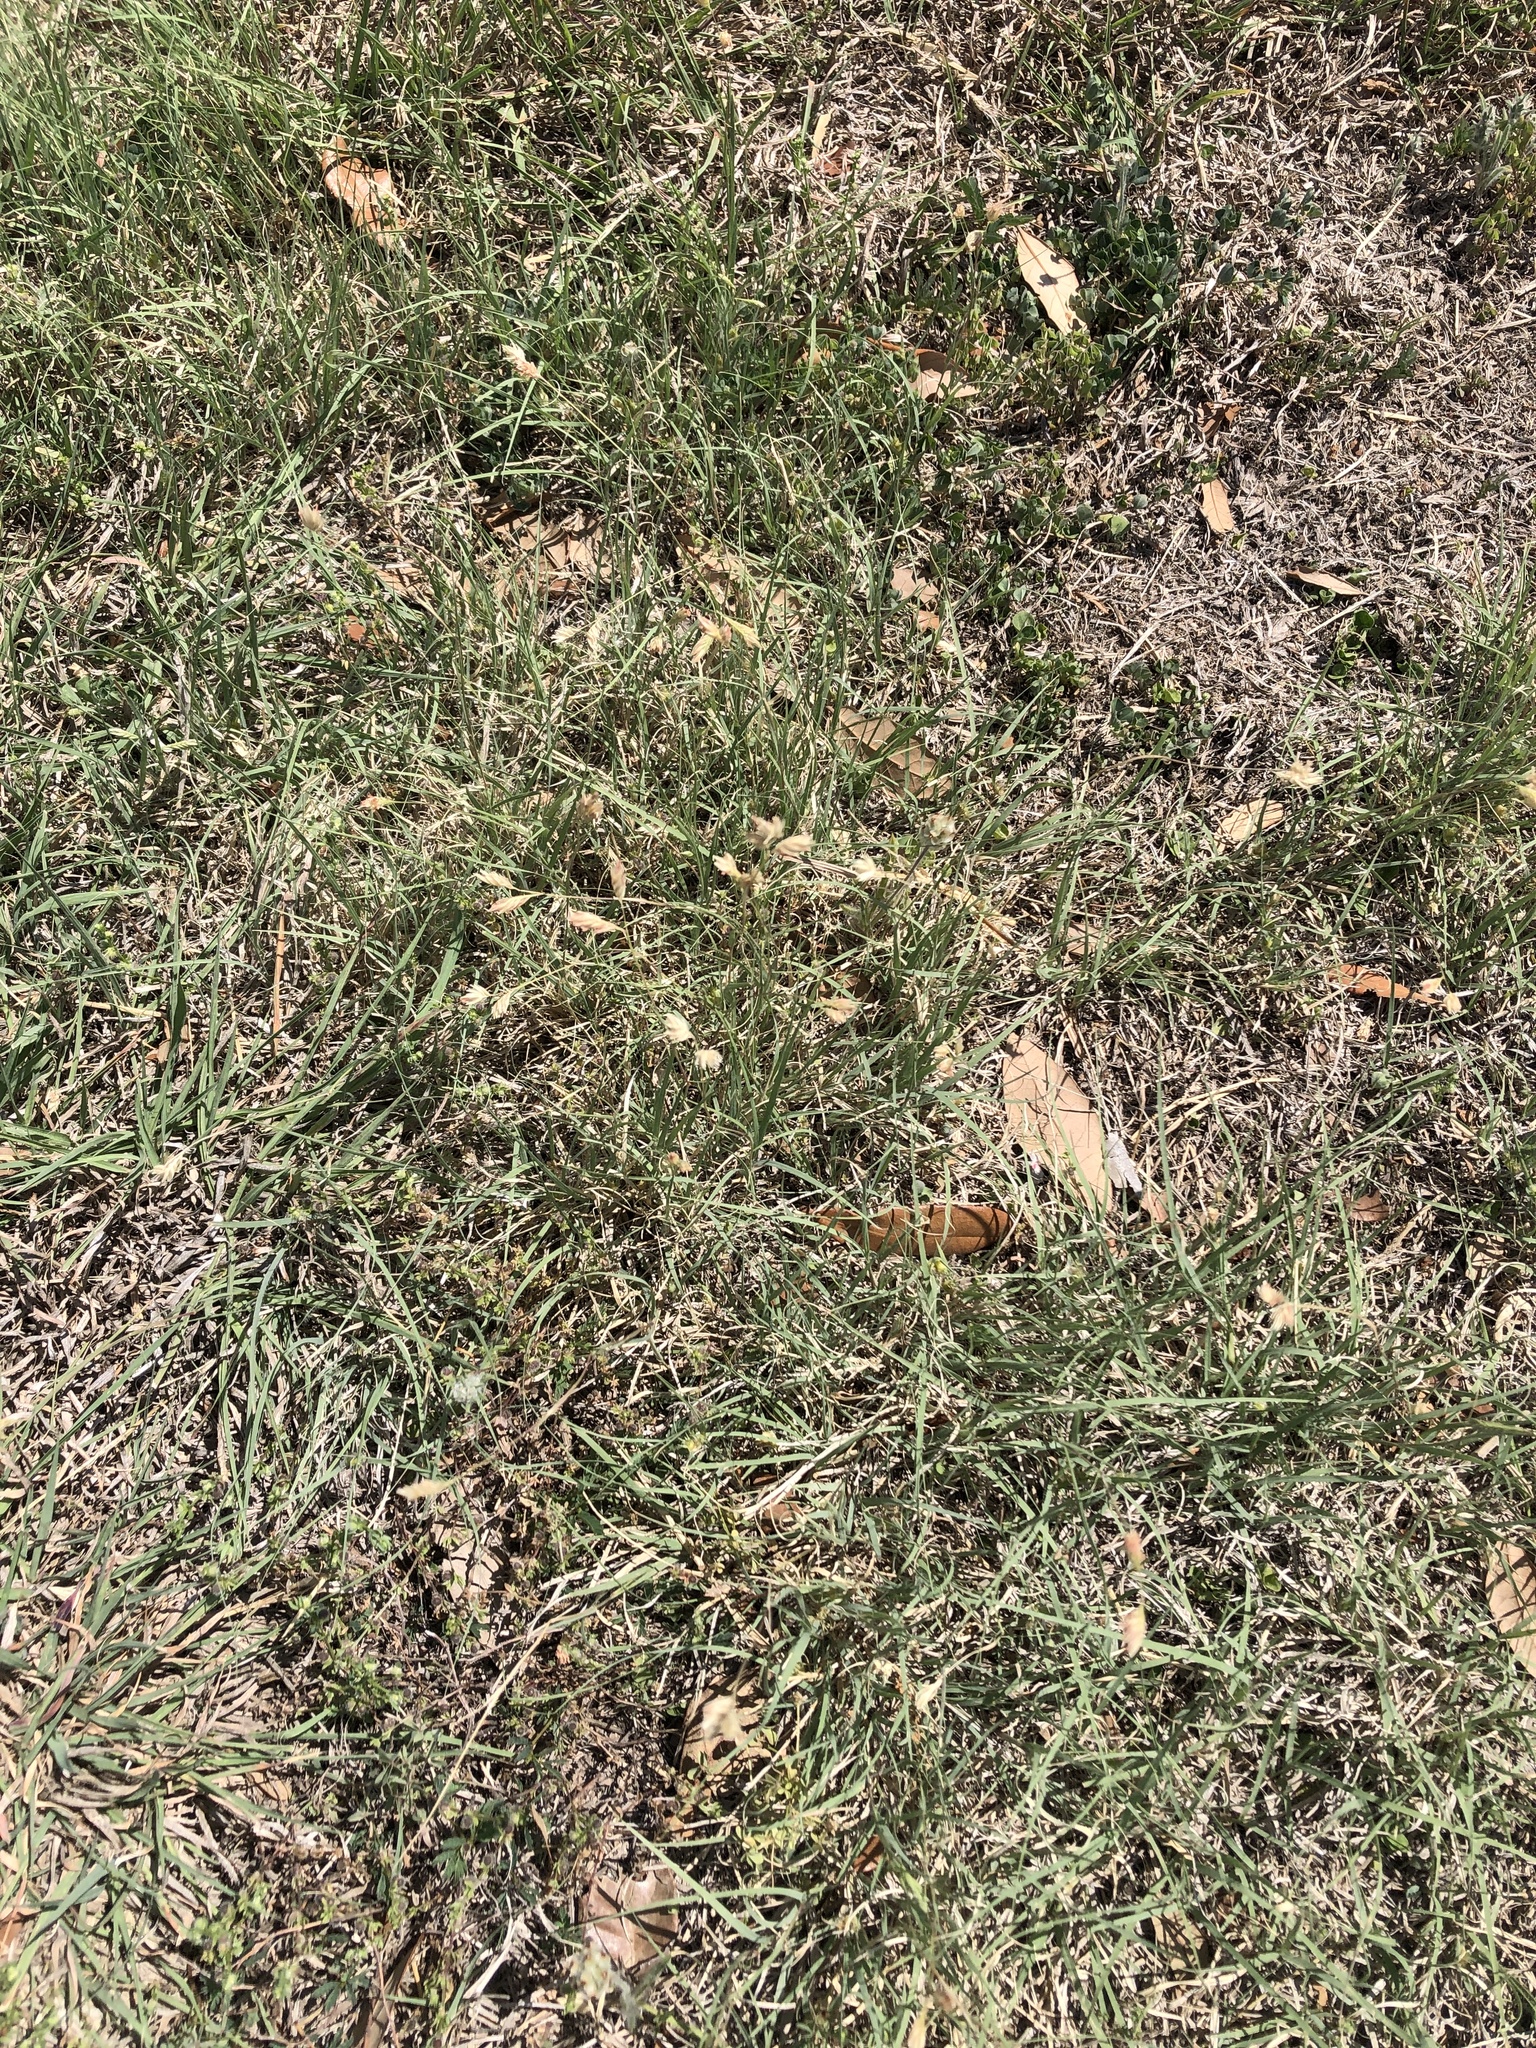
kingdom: Plantae
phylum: Tracheophyta
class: Liliopsida
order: Poales
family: Poaceae
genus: Bouteloua
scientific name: Bouteloua dactyloides
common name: Buffalo grass
